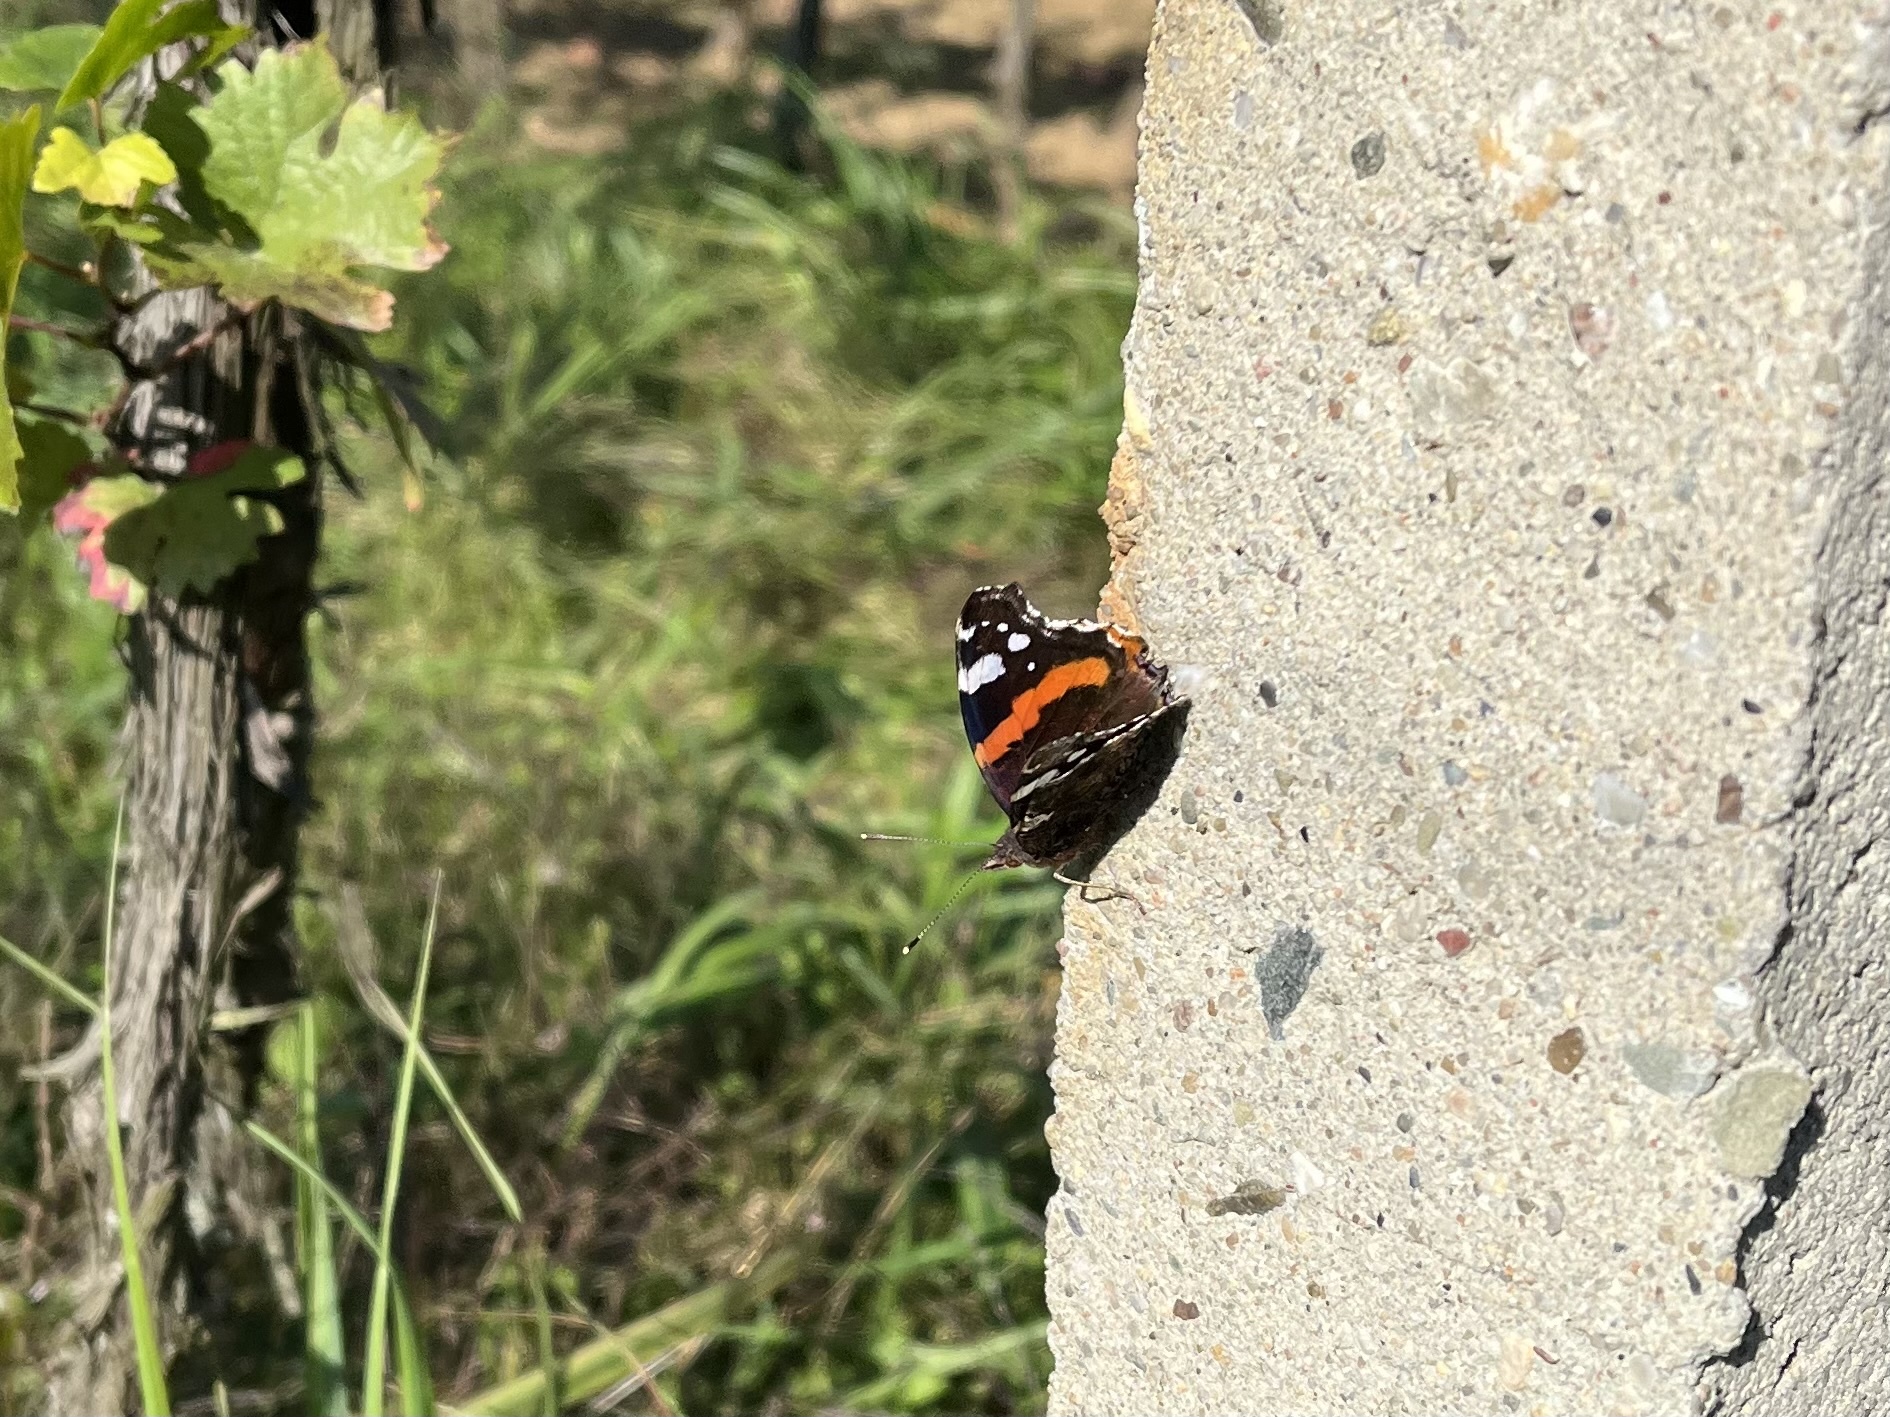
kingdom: Animalia
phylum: Arthropoda
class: Insecta
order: Lepidoptera
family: Nymphalidae
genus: Vanessa
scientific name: Vanessa atalanta
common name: Red admiral
